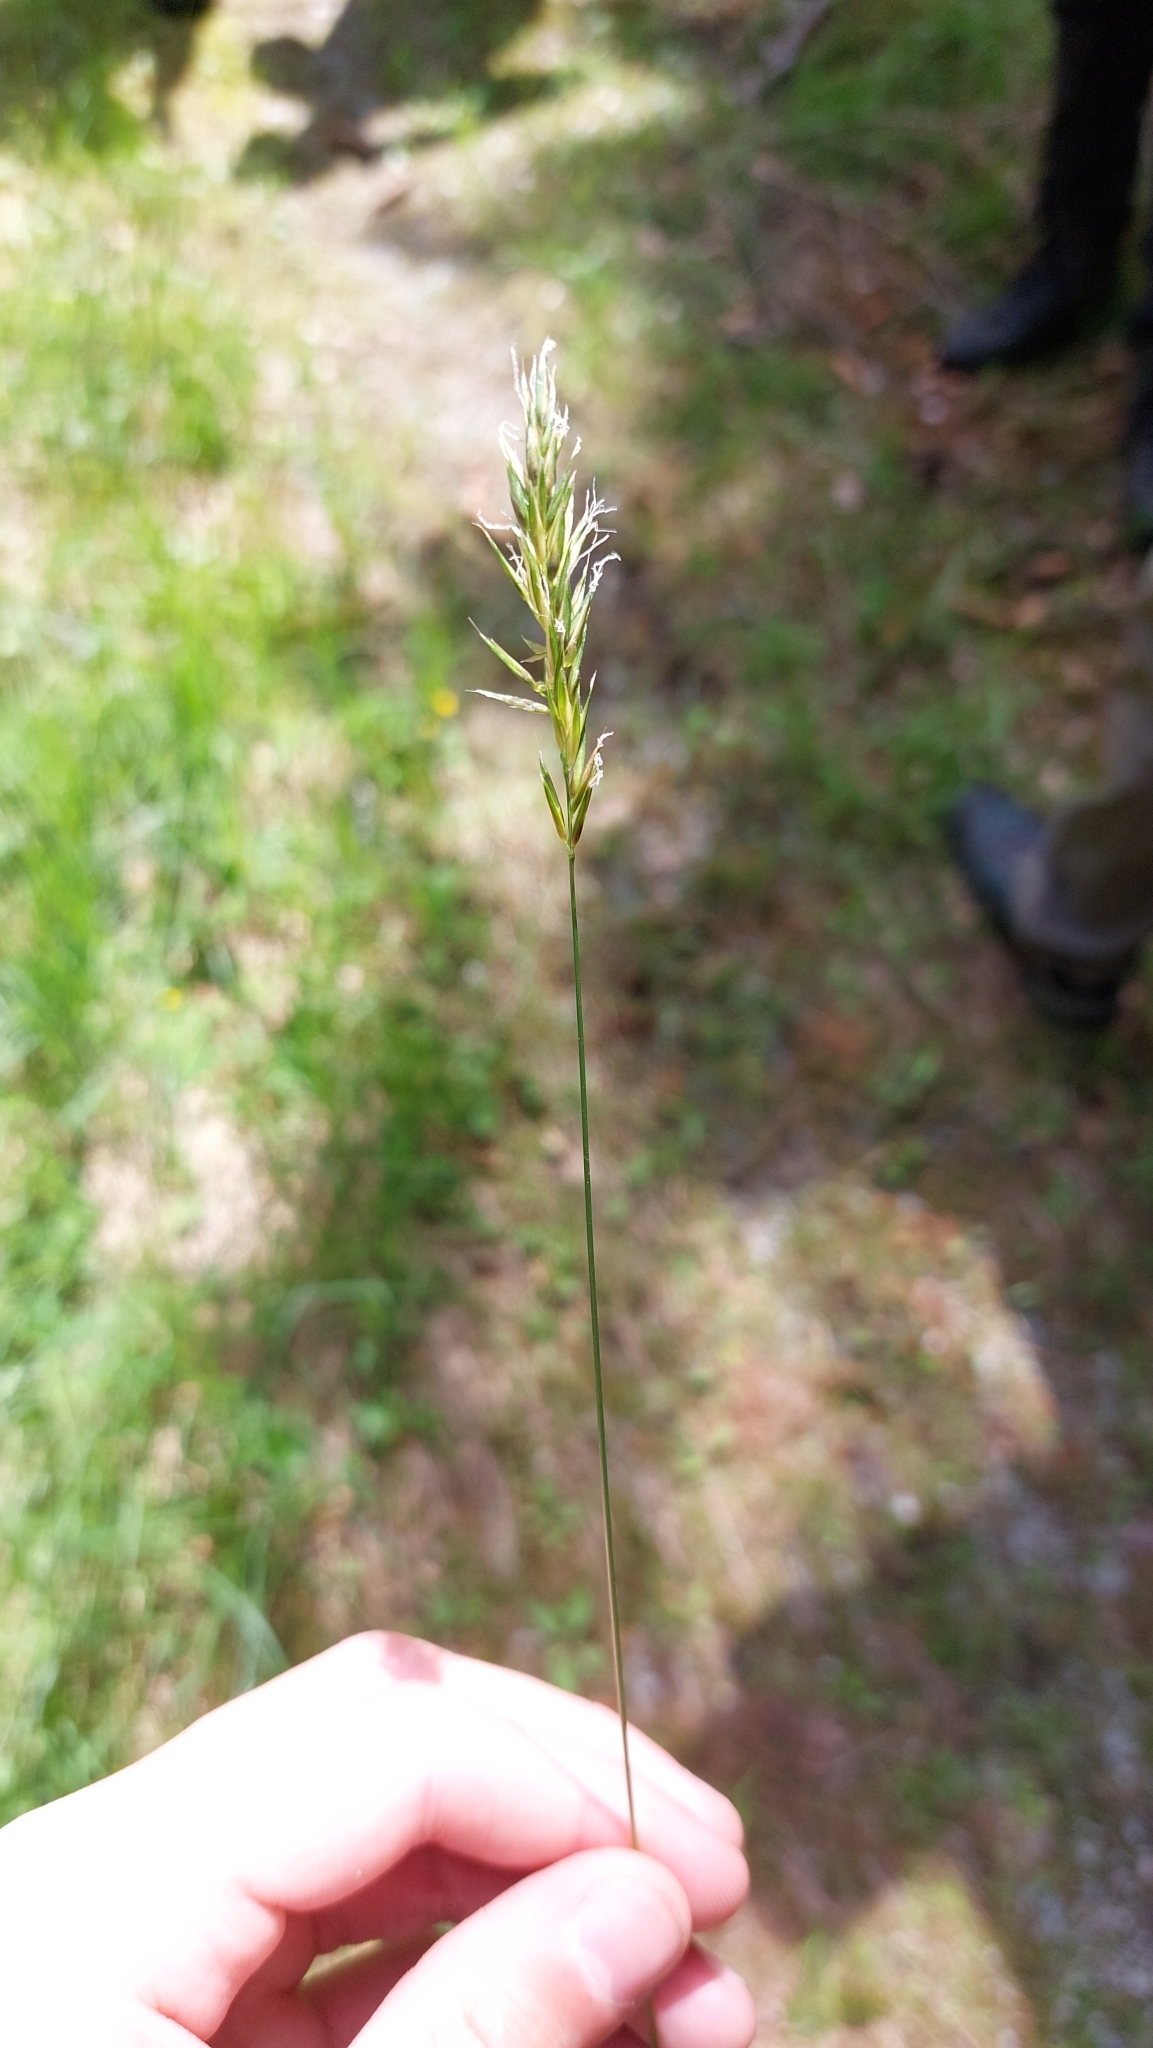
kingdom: Plantae
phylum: Tracheophyta
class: Liliopsida
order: Poales
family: Poaceae
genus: Anthoxanthum
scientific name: Anthoxanthum odoratum
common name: Sweet vernalgrass
